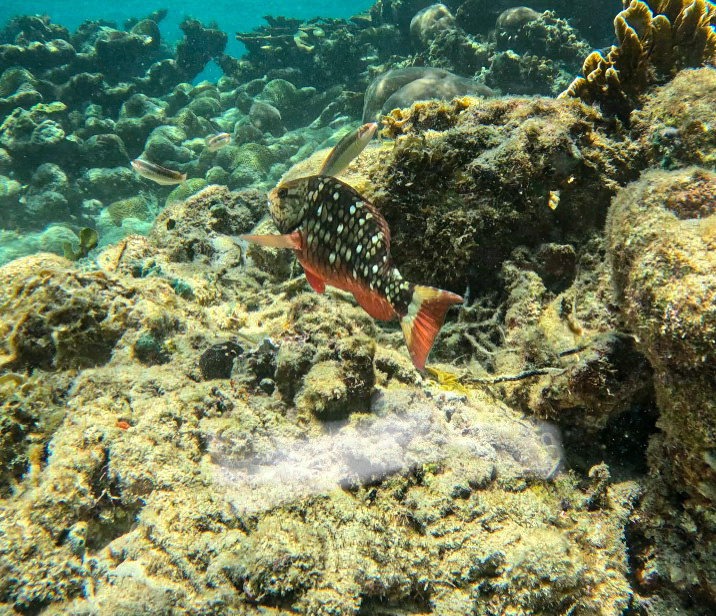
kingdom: Animalia
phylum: Chordata
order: Perciformes
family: Scaridae
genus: Sparisoma
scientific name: Sparisoma viride
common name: Stoplight parrotfish
